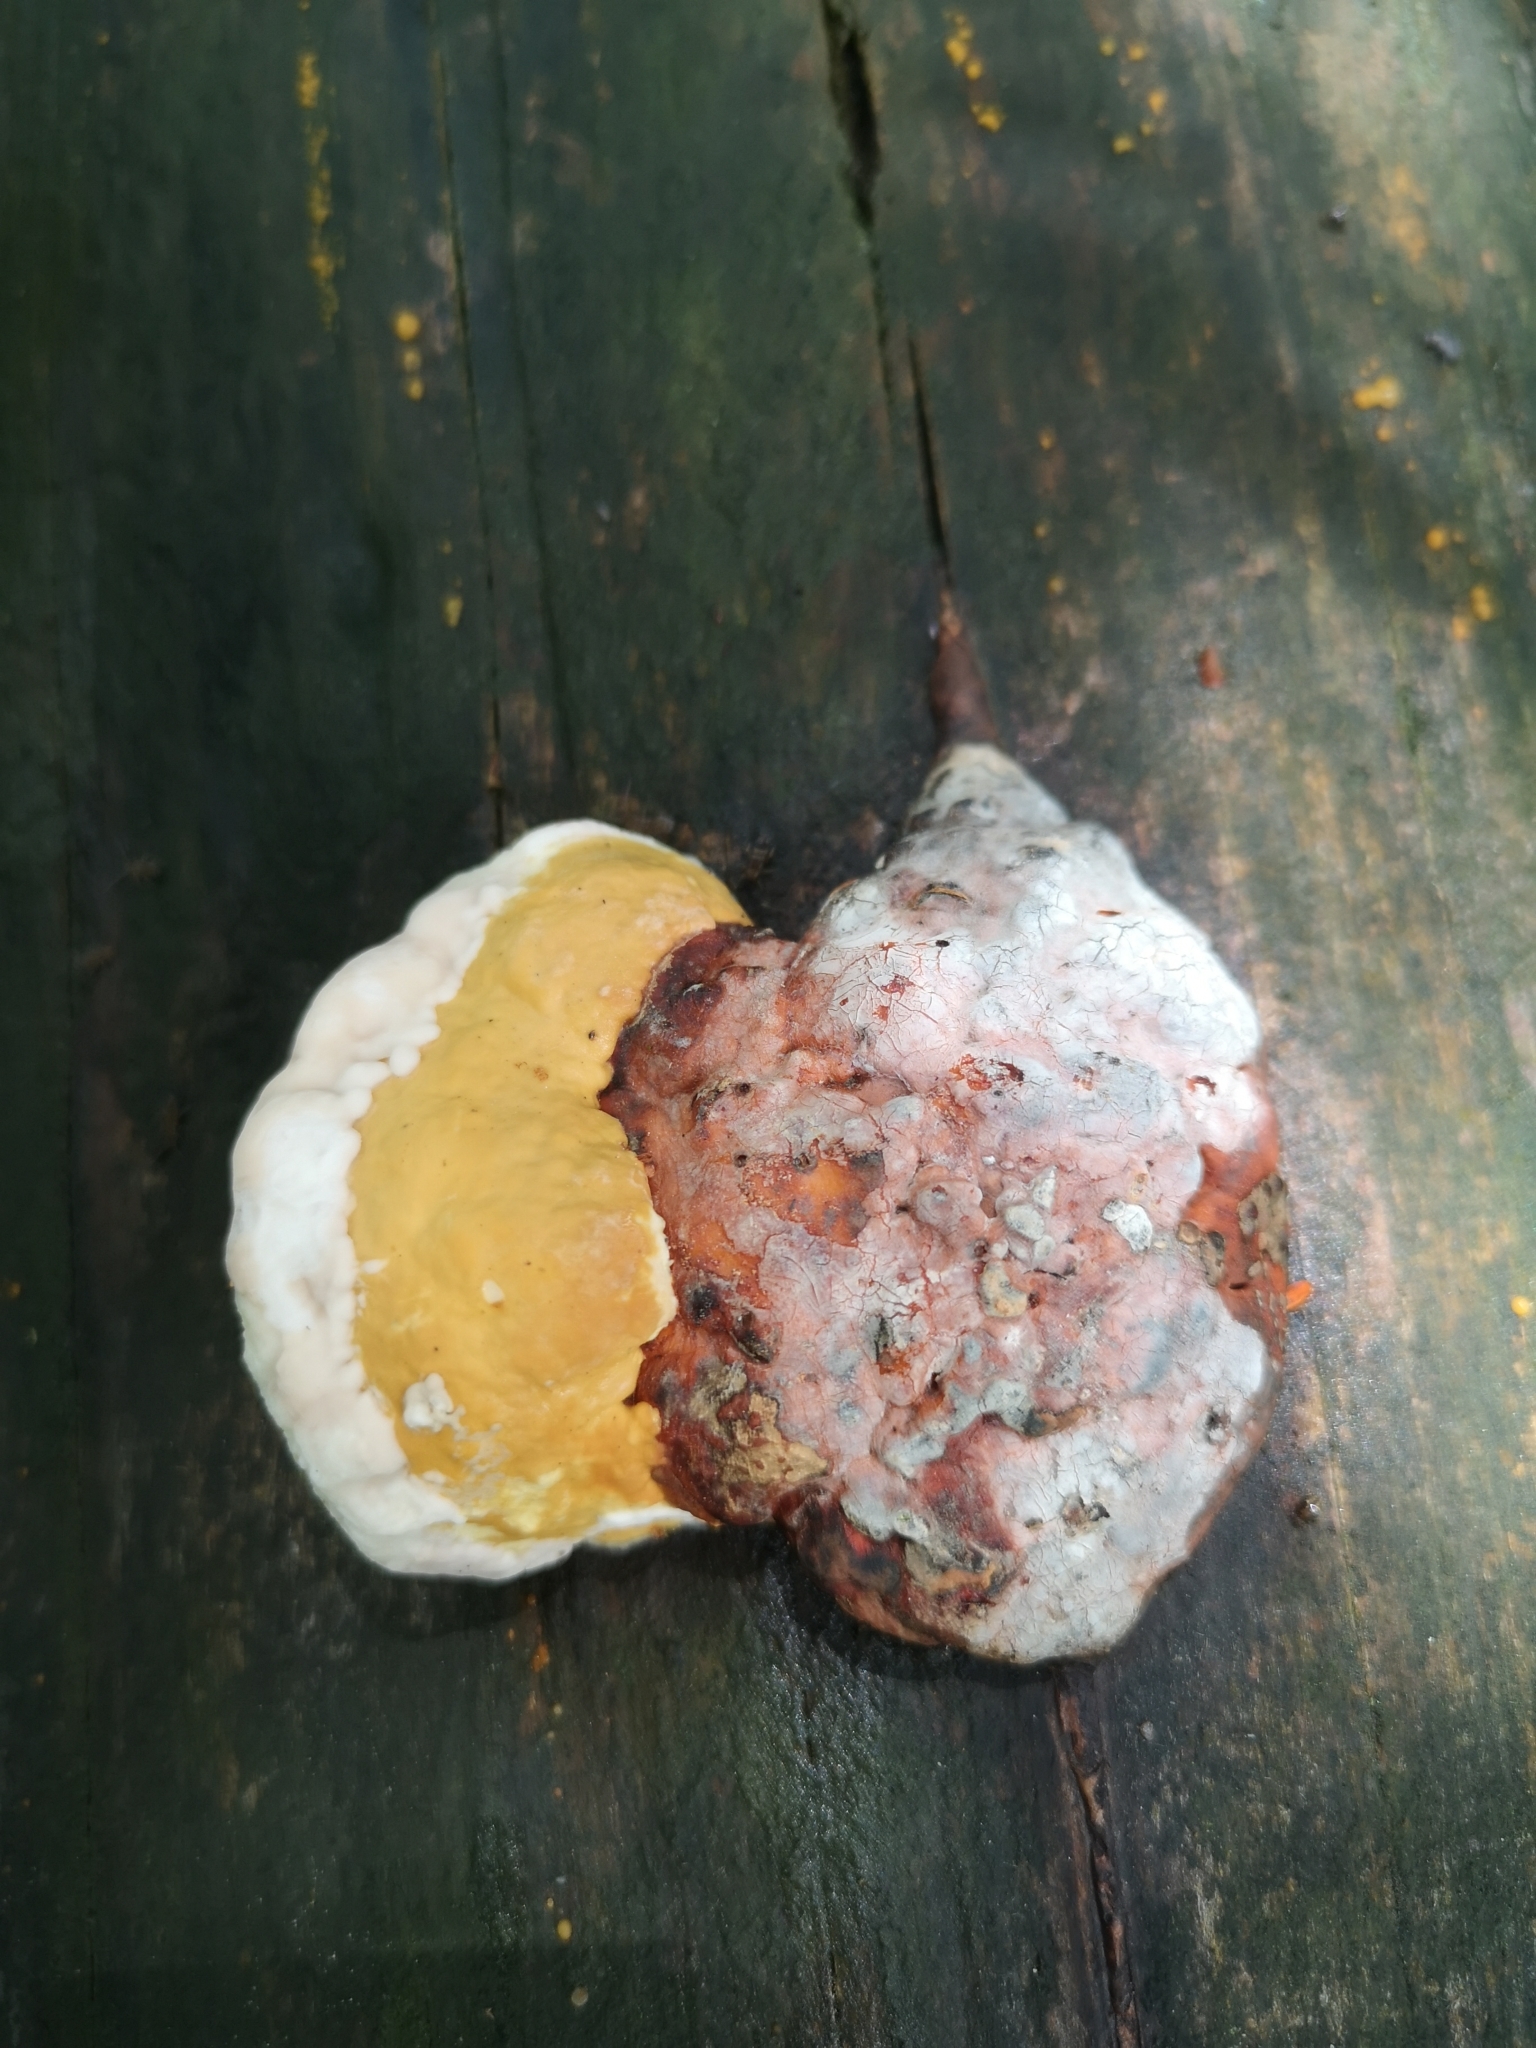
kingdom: Fungi
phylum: Basidiomycota
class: Agaricomycetes
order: Polyporales
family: Fomitopsidaceae
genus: Fomitopsis
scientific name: Fomitopsis pinicola
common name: Red-belted bracket
